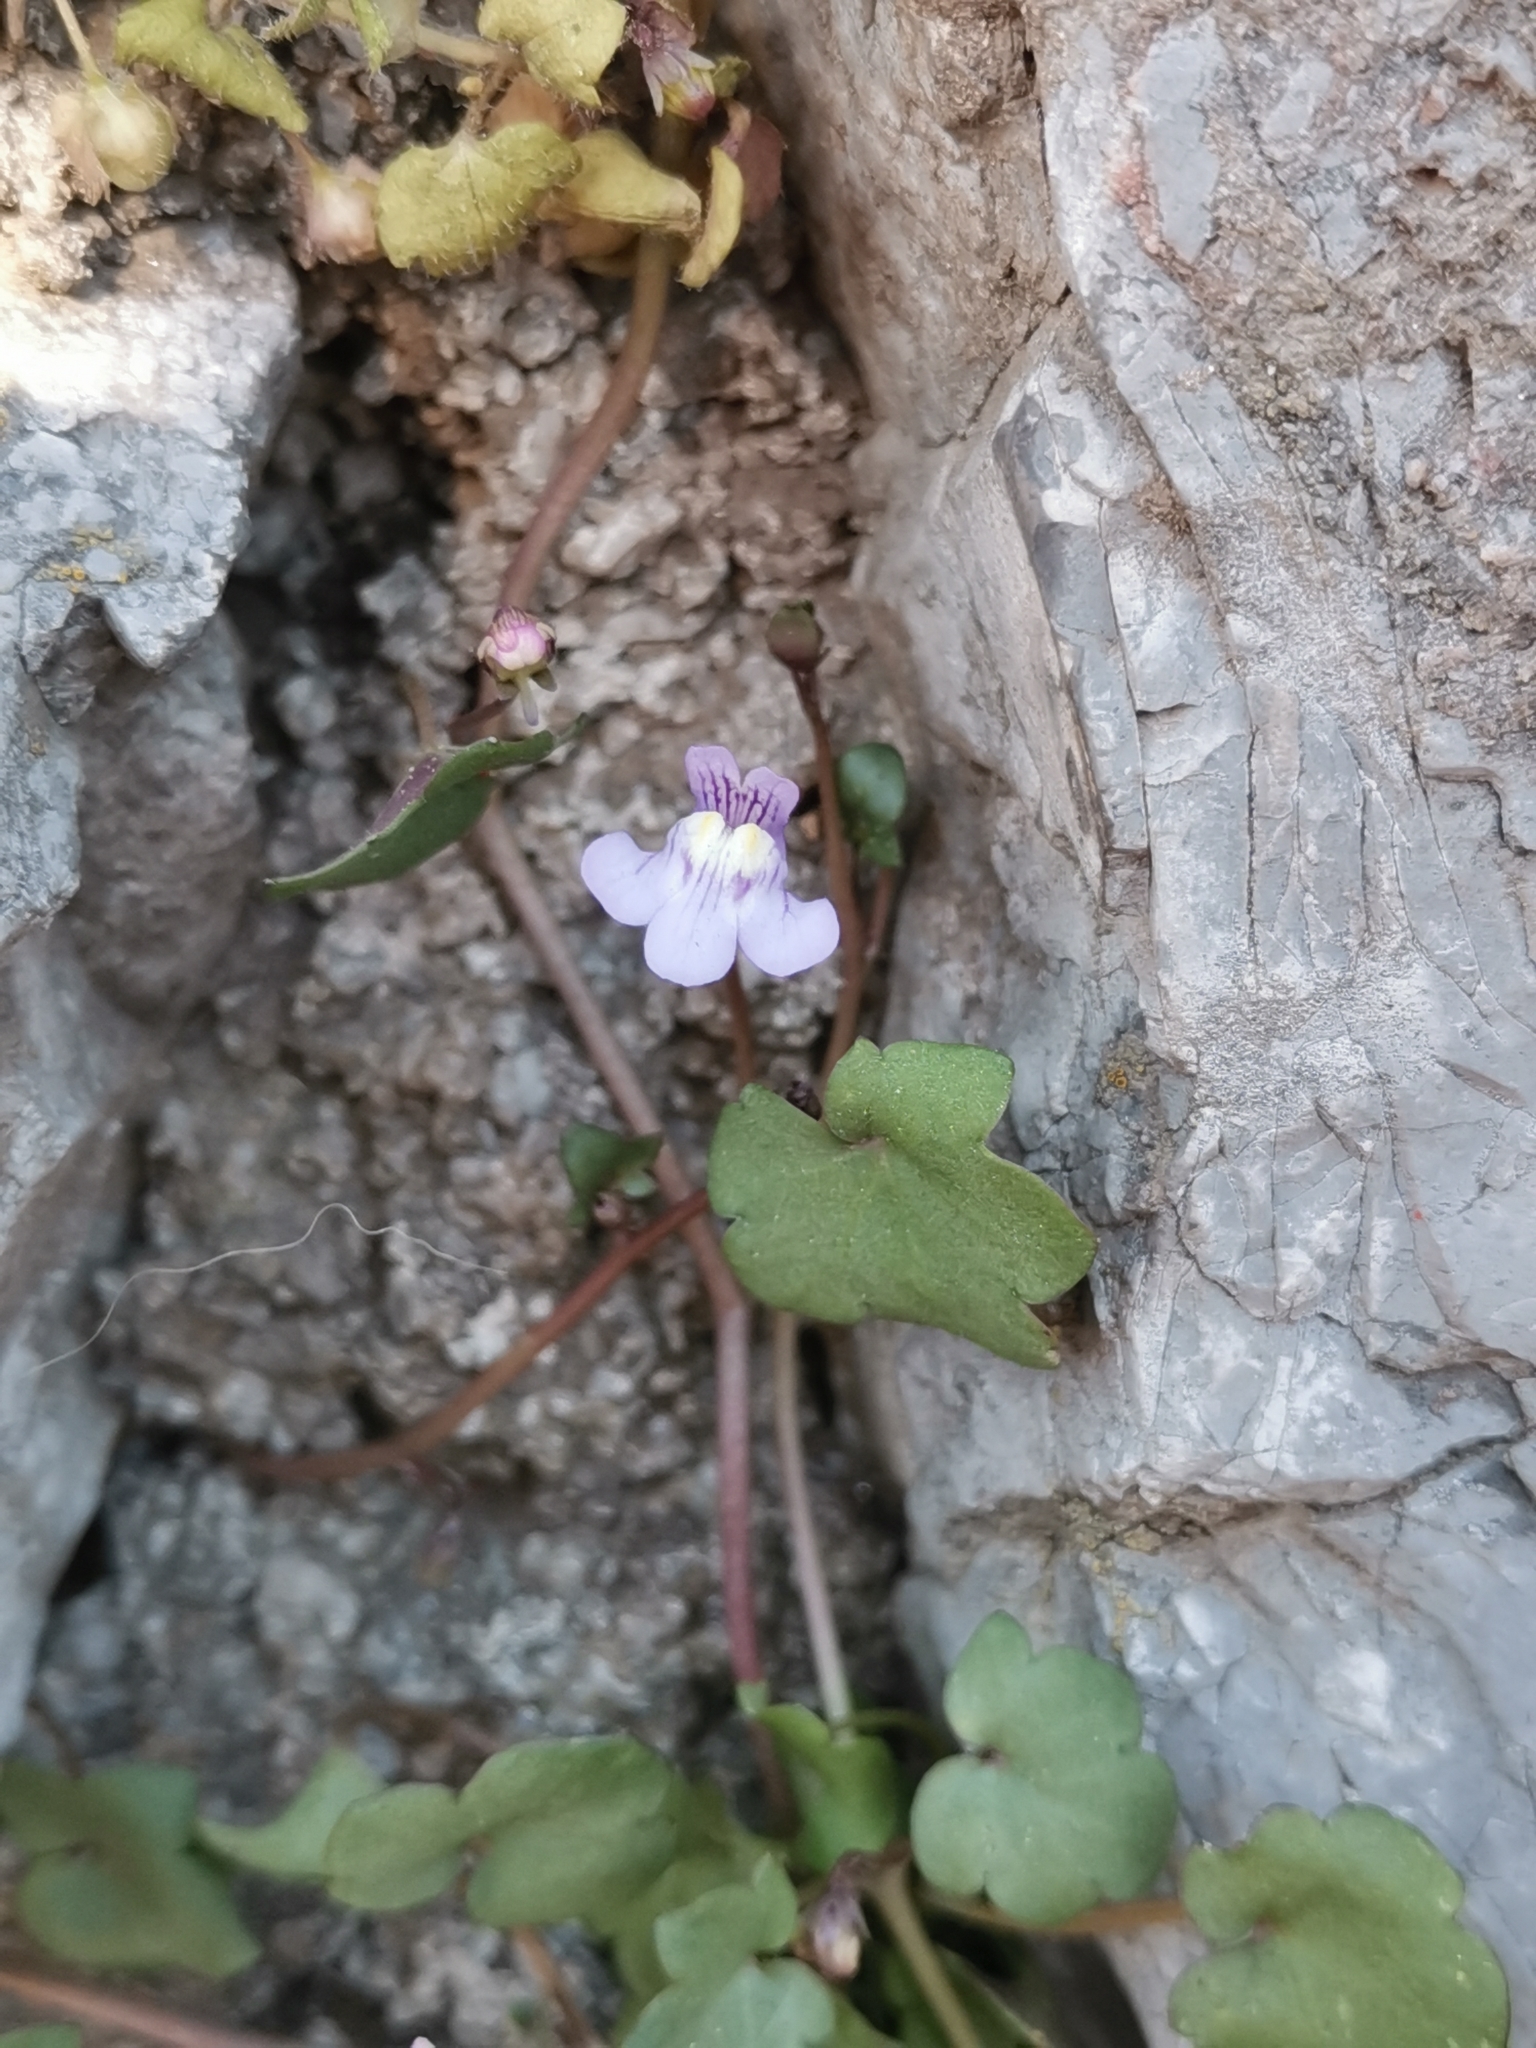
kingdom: Plantae
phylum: Tracheophyta
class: Magnoliopsida
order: Lamiales
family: Plantaginaceae
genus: Cymbalaria
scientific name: Cymbalaria muralis
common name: Ivy-leaved toadflax
